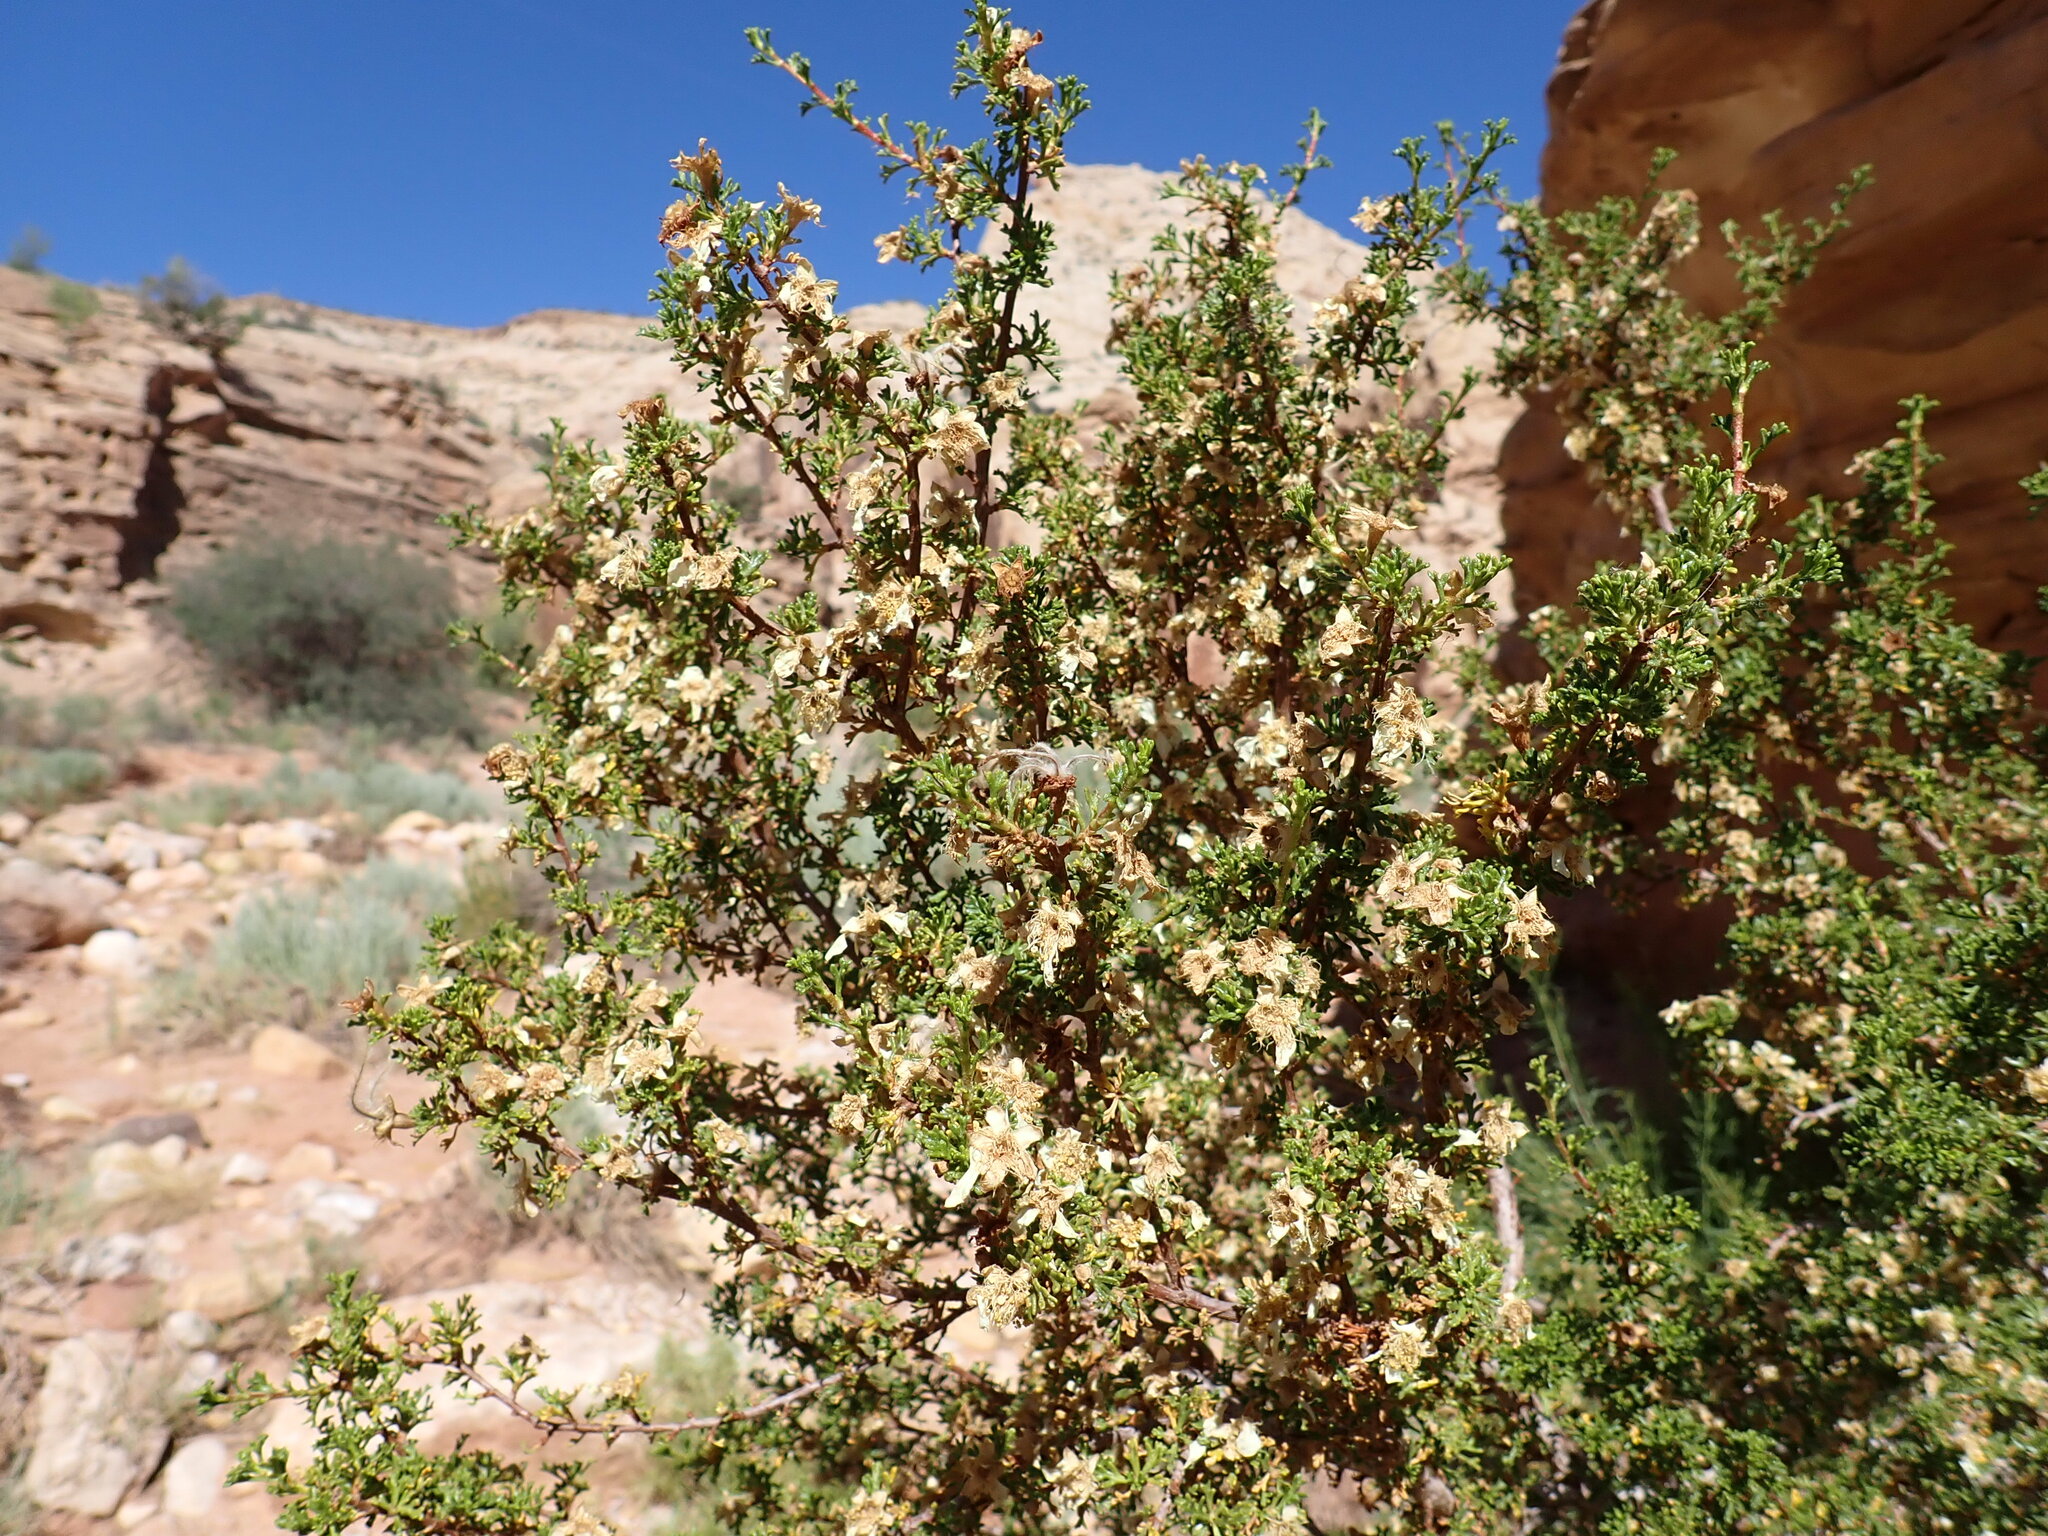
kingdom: Plantae
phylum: Tracheophyta
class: Magnoliopsida
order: Rosales
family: Rosaceae
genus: Purshia
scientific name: Purshia stansburiana
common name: Stansbury's cliffrose
